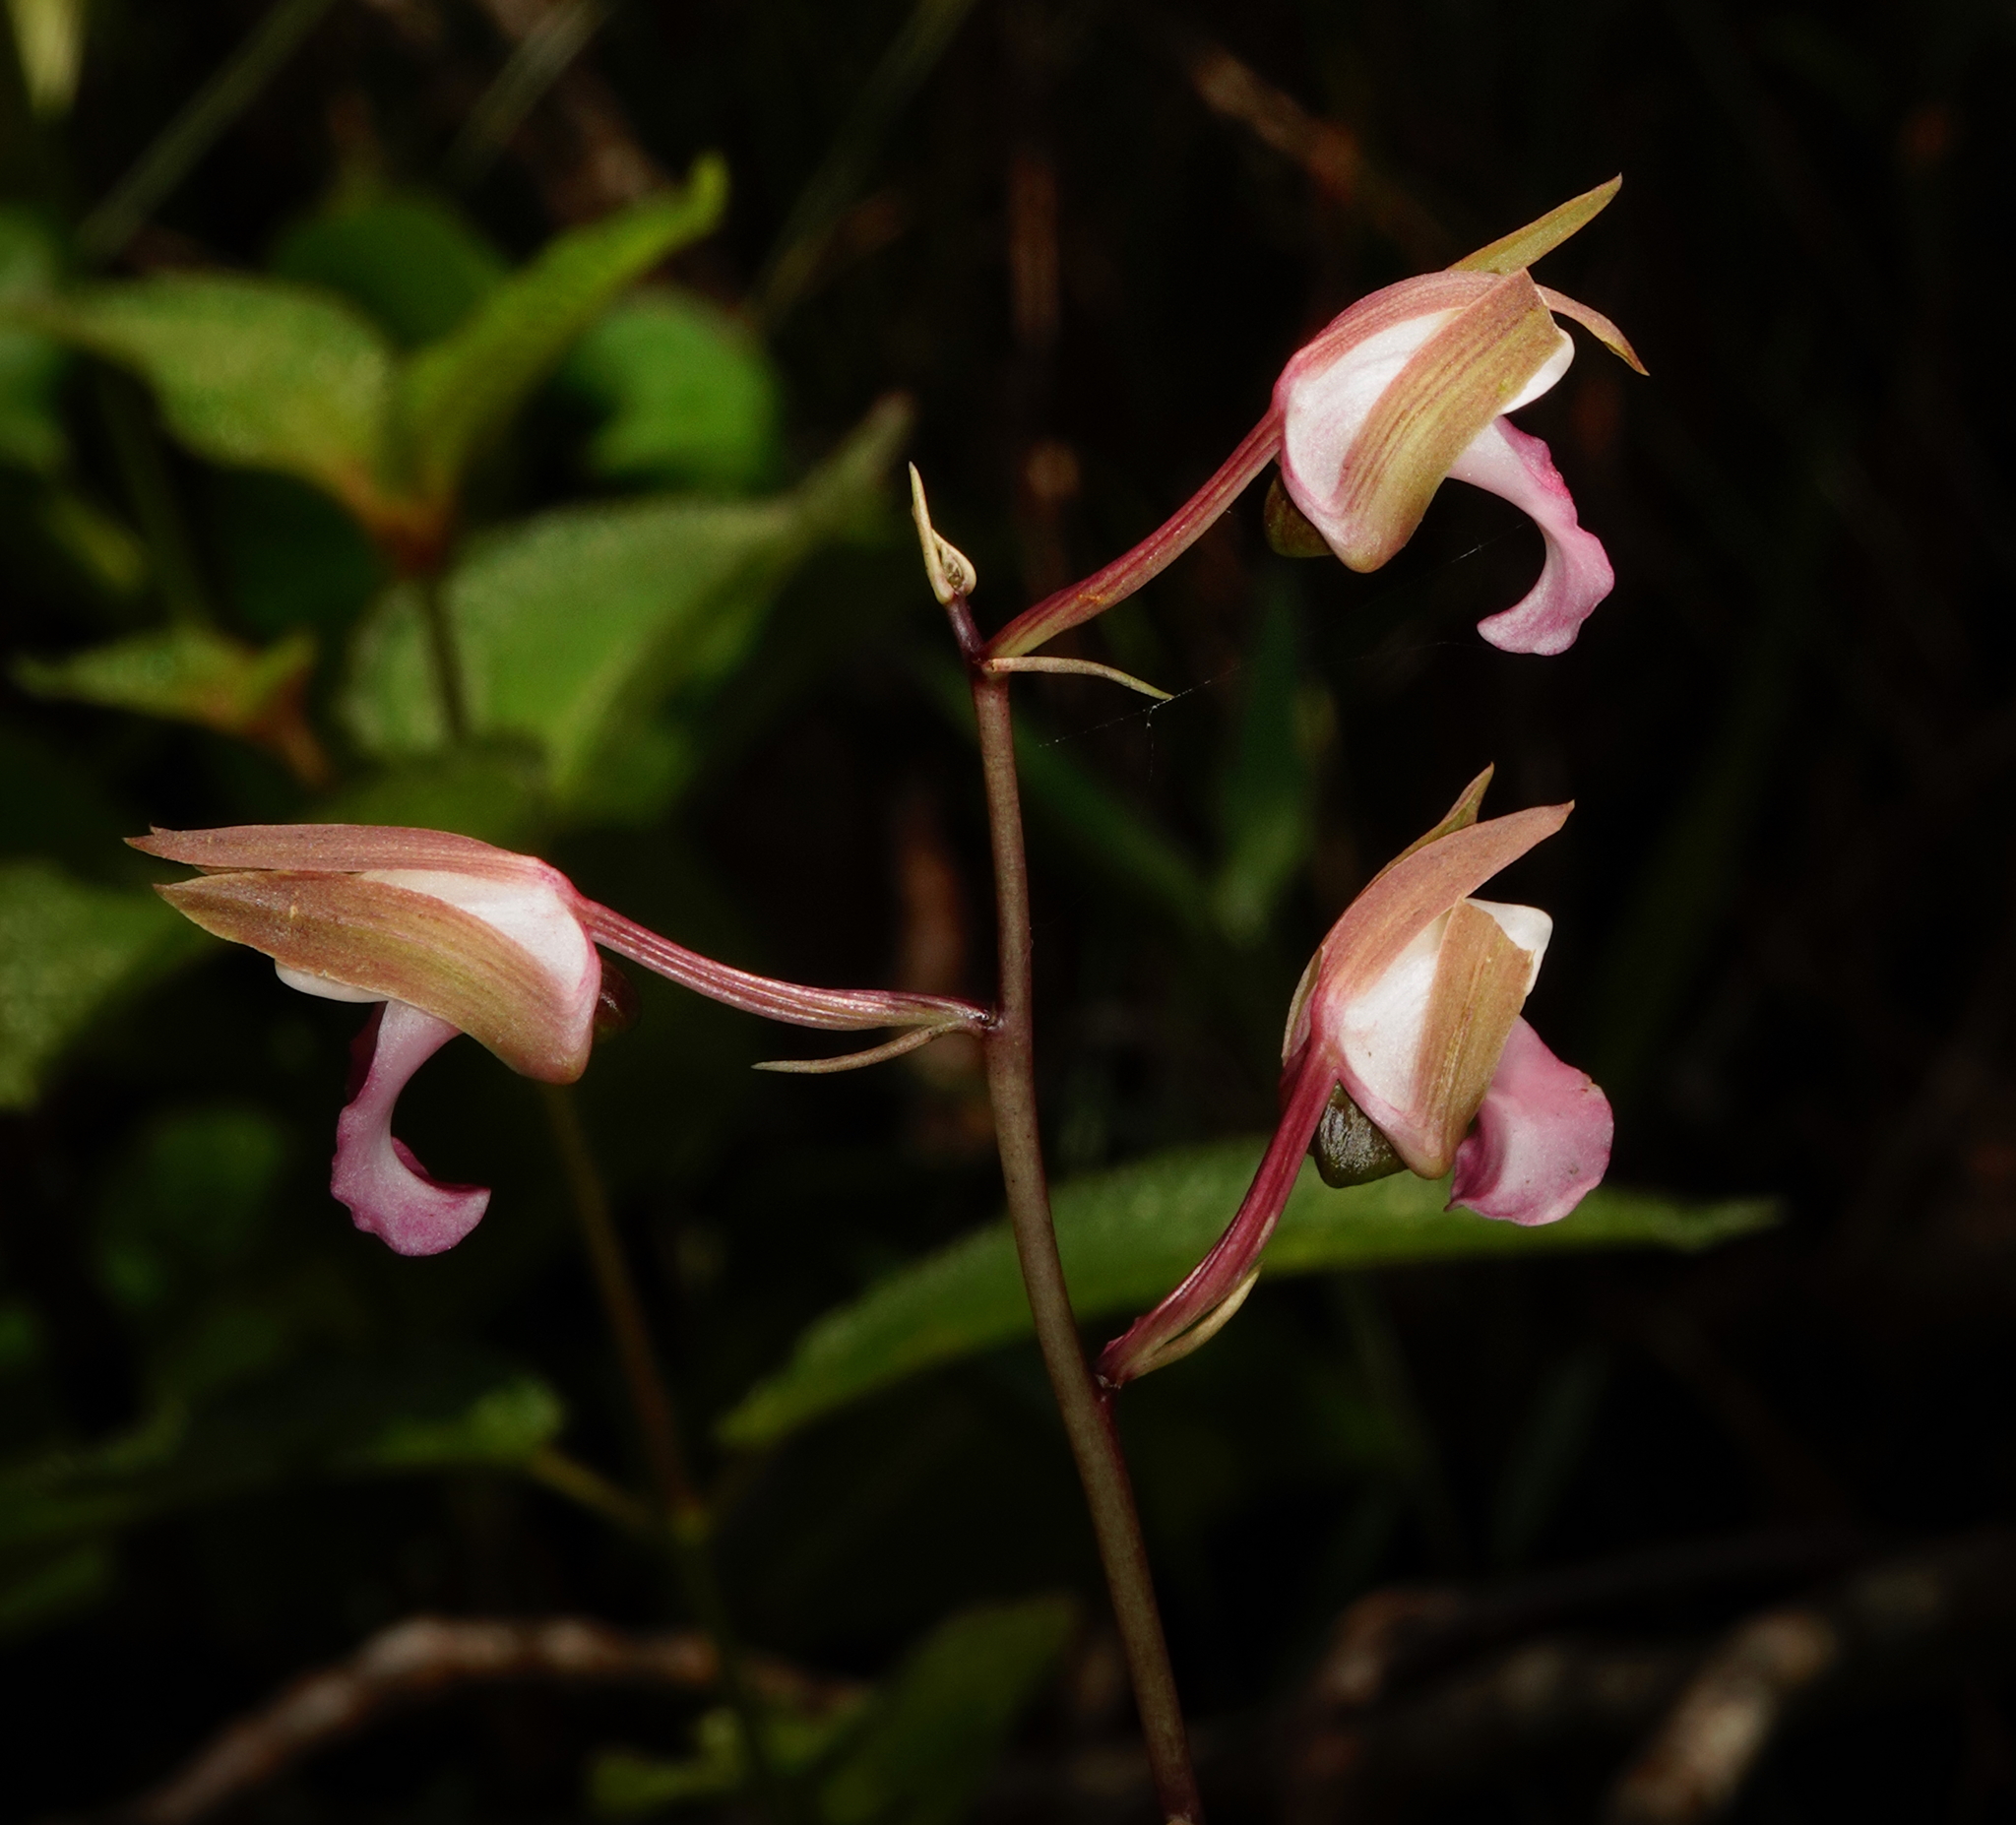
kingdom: Plantae
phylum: Tracheophyta
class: Liliopsida
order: Asparagales
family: Orchidaceae
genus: Eulophia
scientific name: Eulophia nuda
